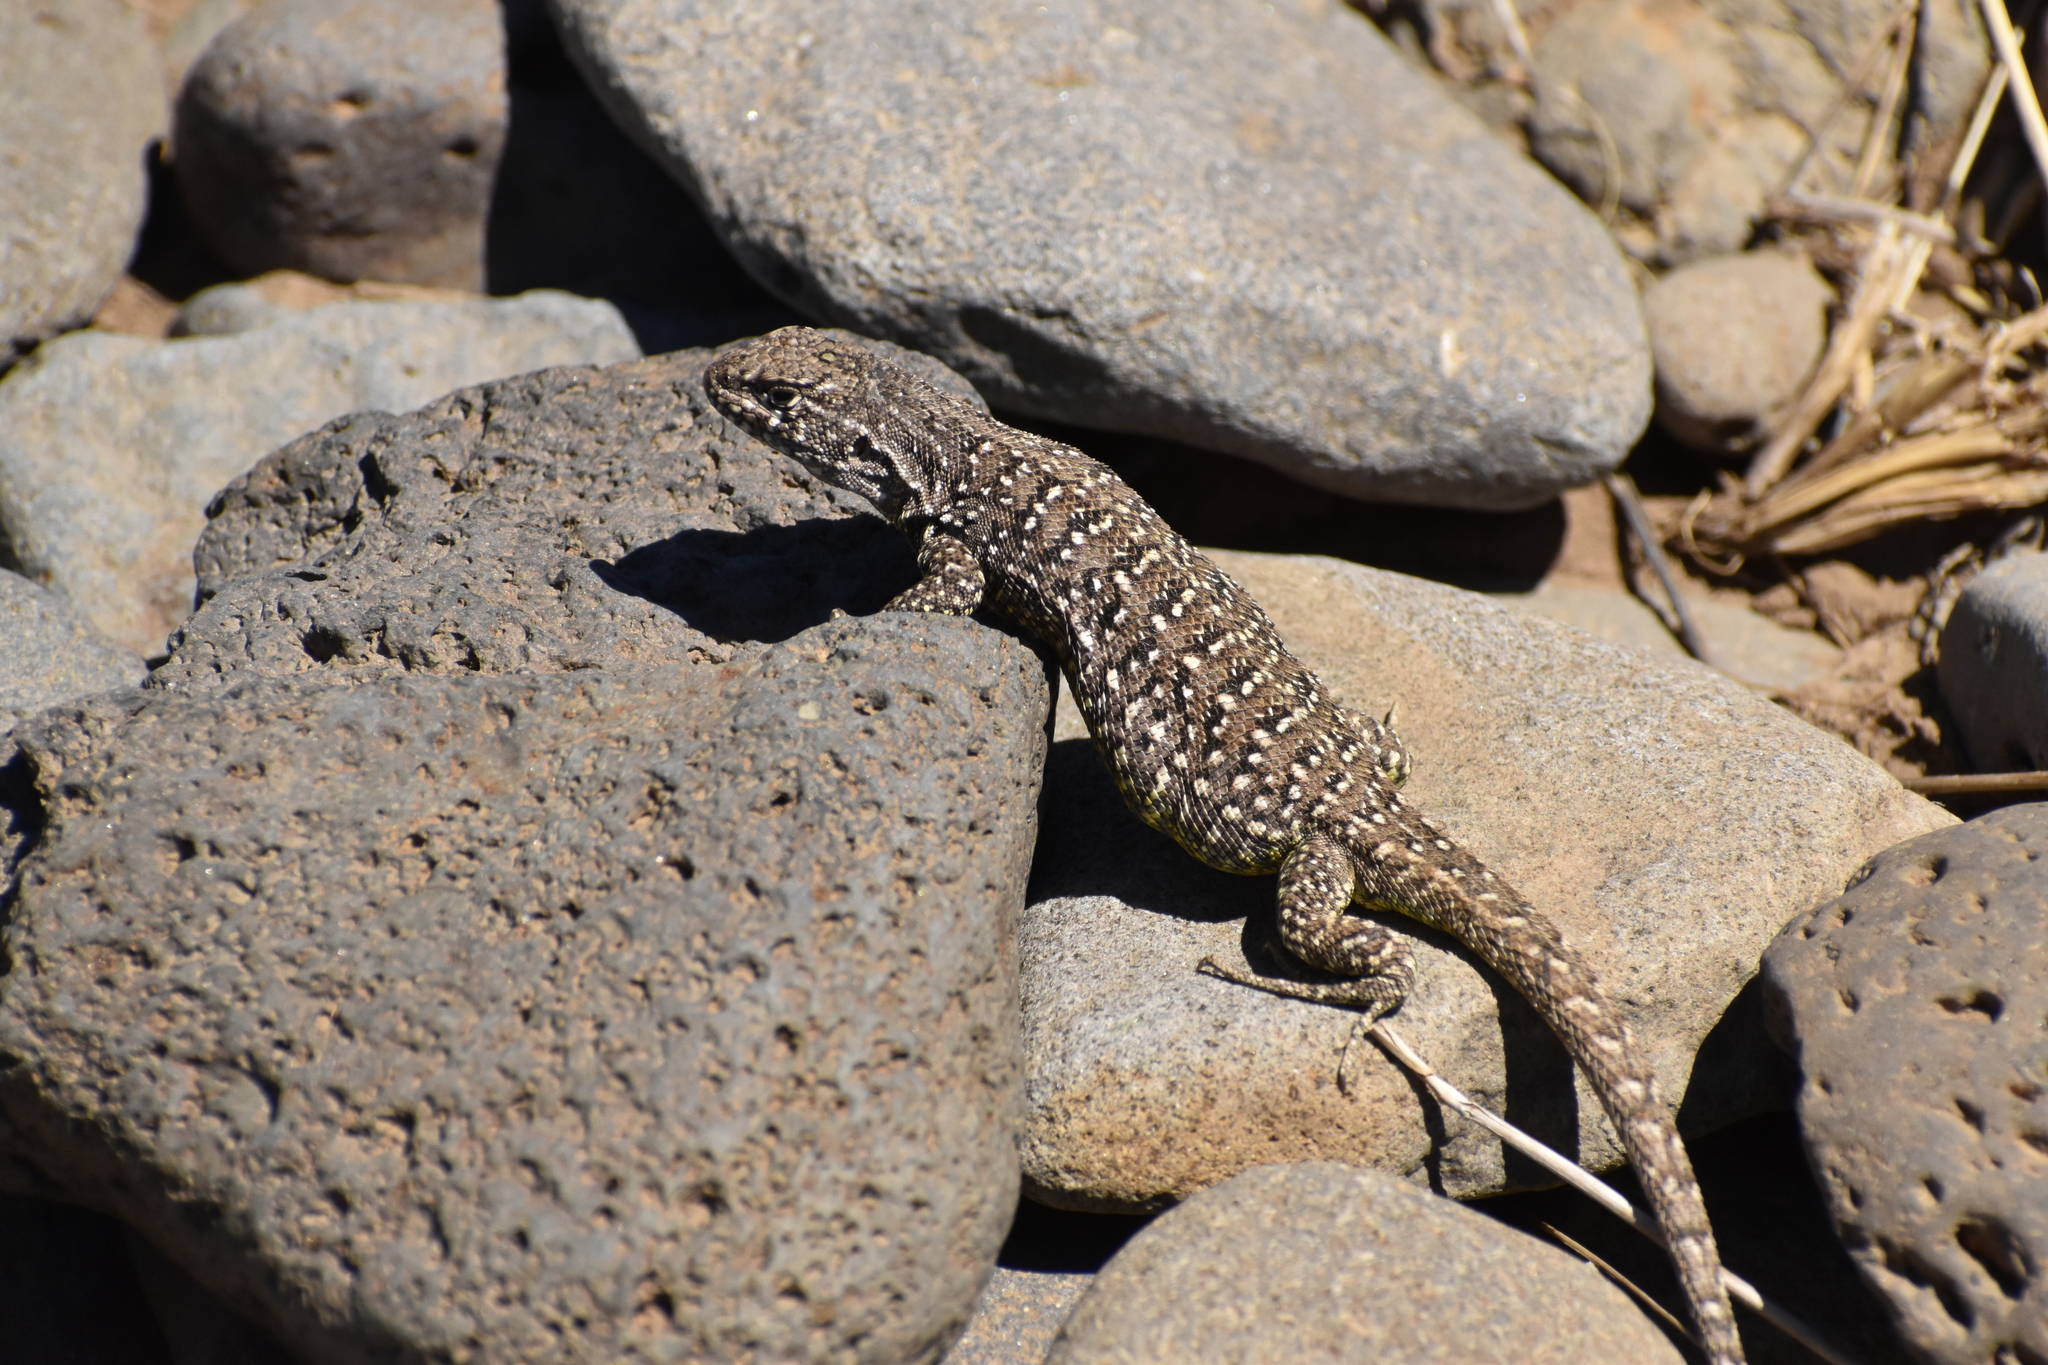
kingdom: Animalia
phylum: Chordata
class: Squamata
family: Liolaemidae
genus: Liolaemus
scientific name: Liolaemus kingii
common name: King's tree iguana
